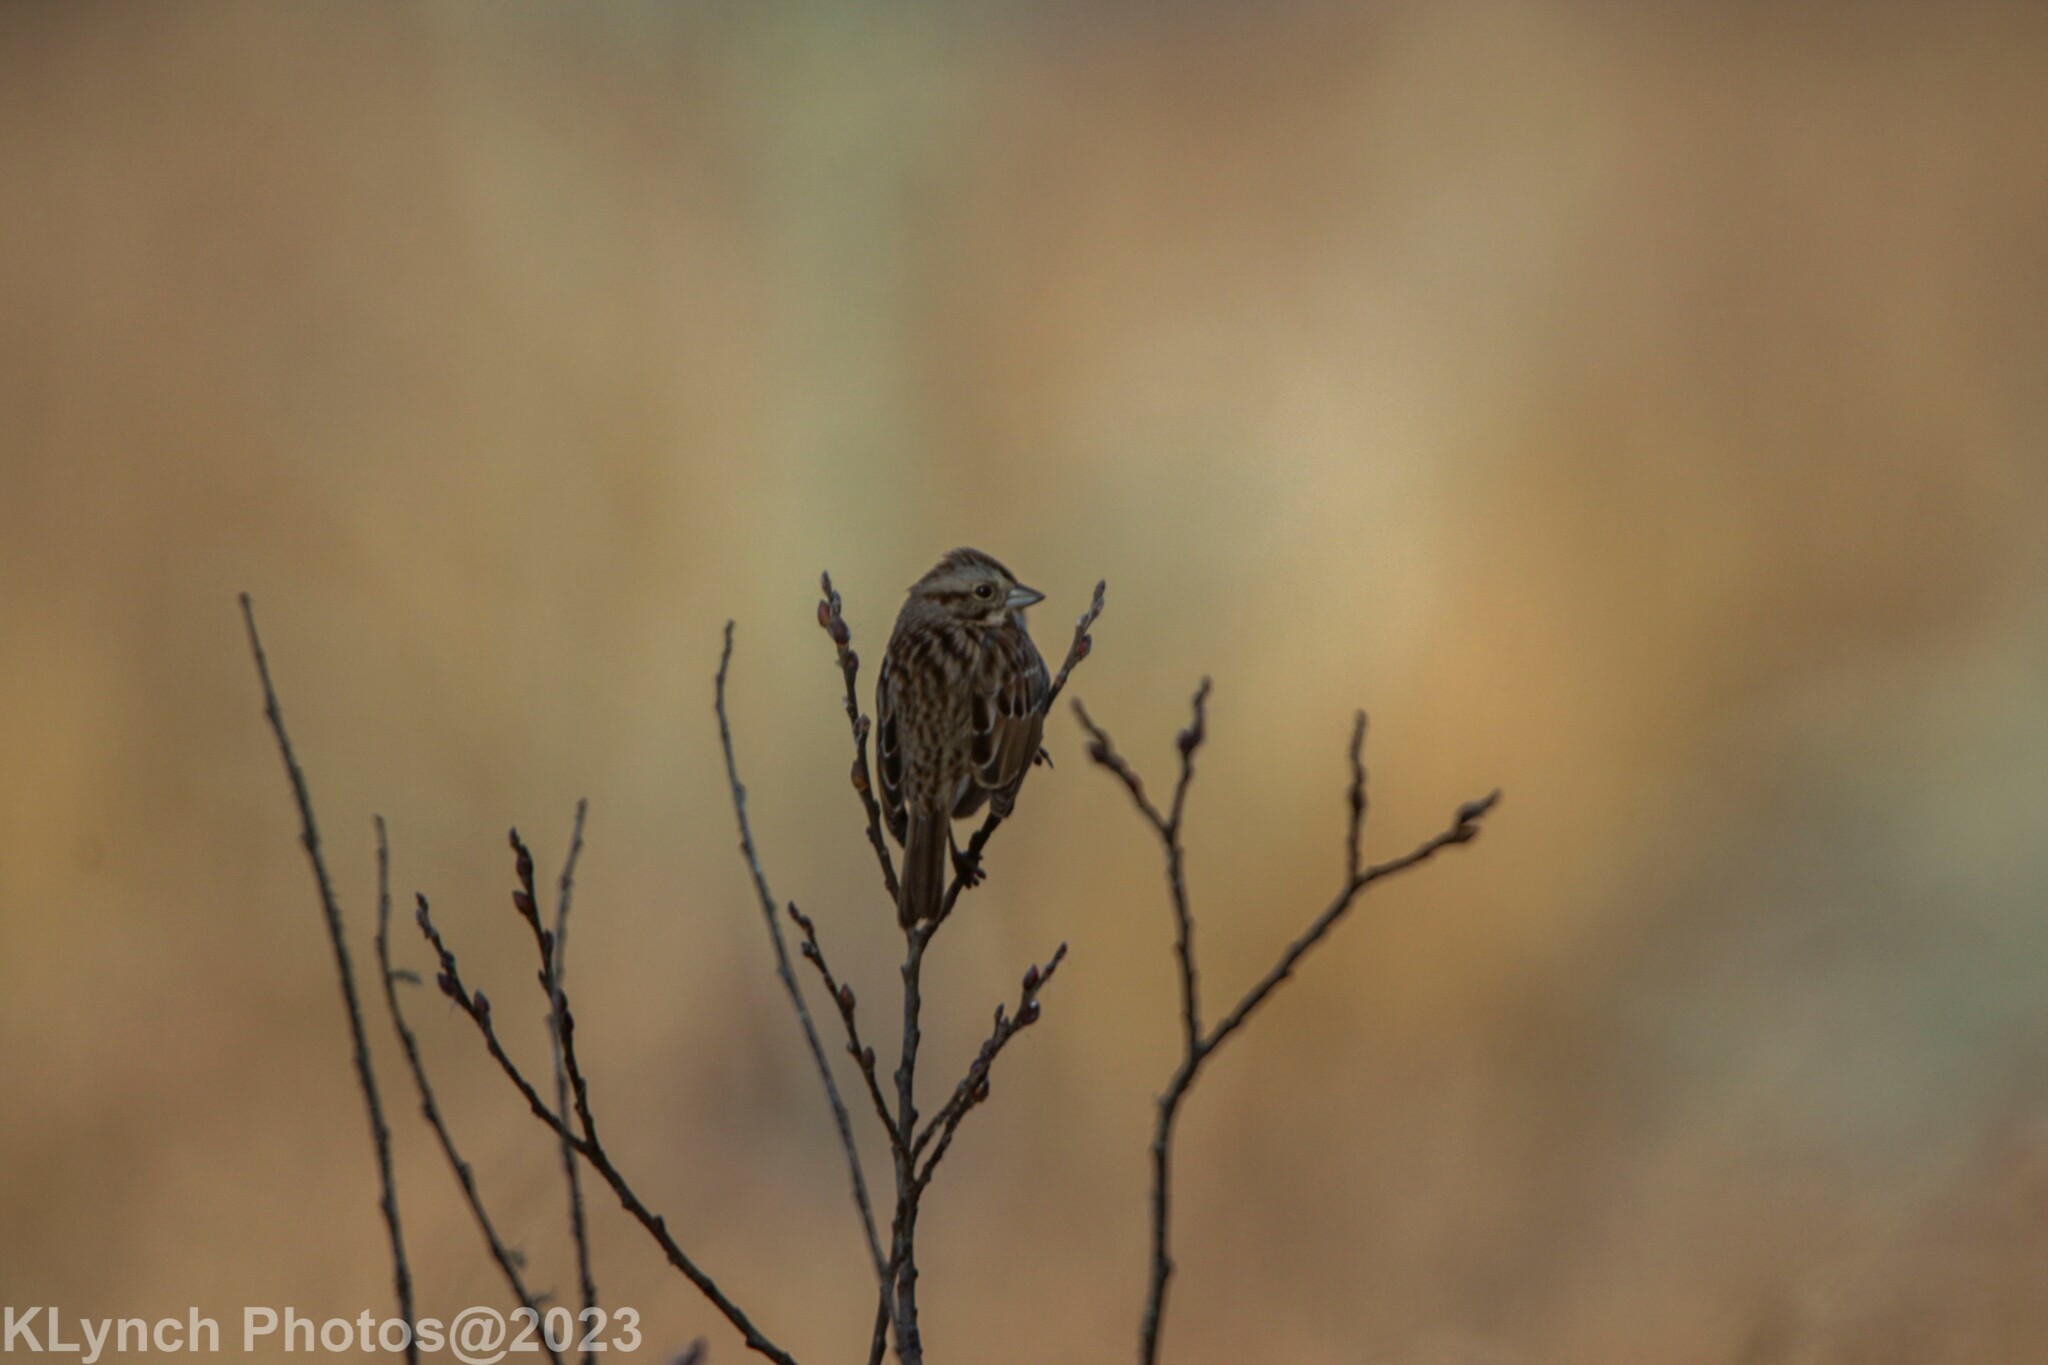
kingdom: Animalia
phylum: Chordata
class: Aves
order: Passeriformes
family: Passerellidae
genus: Melospiza
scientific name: Melospiza melodia
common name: Song sparrow
